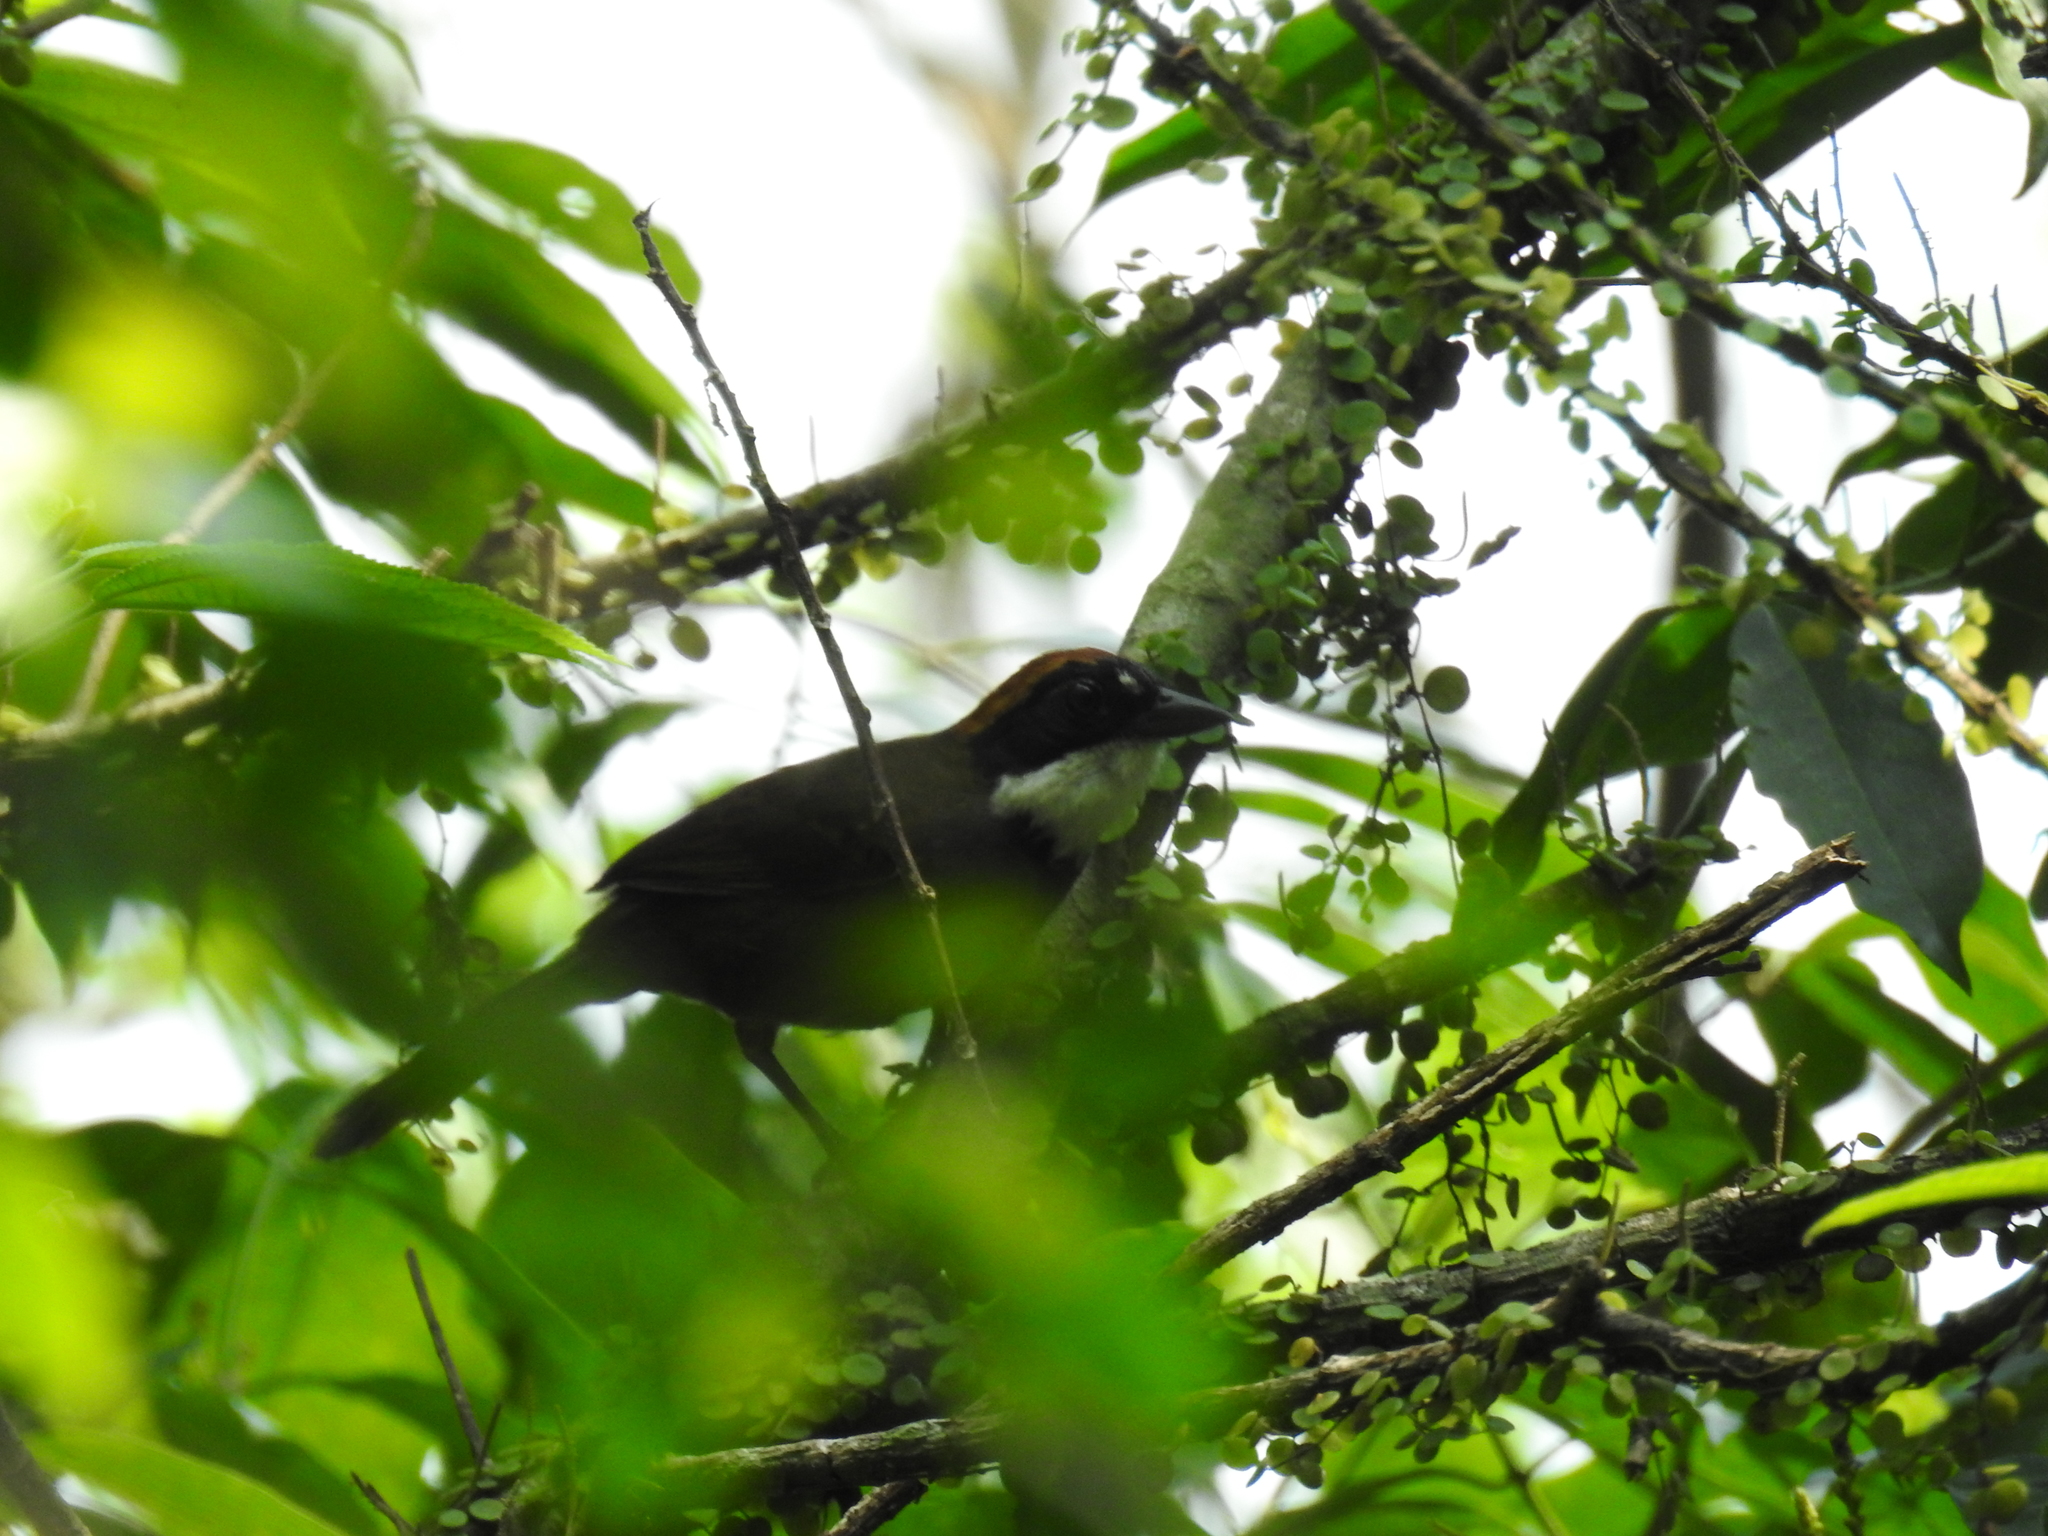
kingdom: Animalia
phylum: Chordata
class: Aves
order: Passeriformes
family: Passerellidae
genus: Arremon
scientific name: Arremon brunneinucha
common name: Chestnut-capped brushfinch
